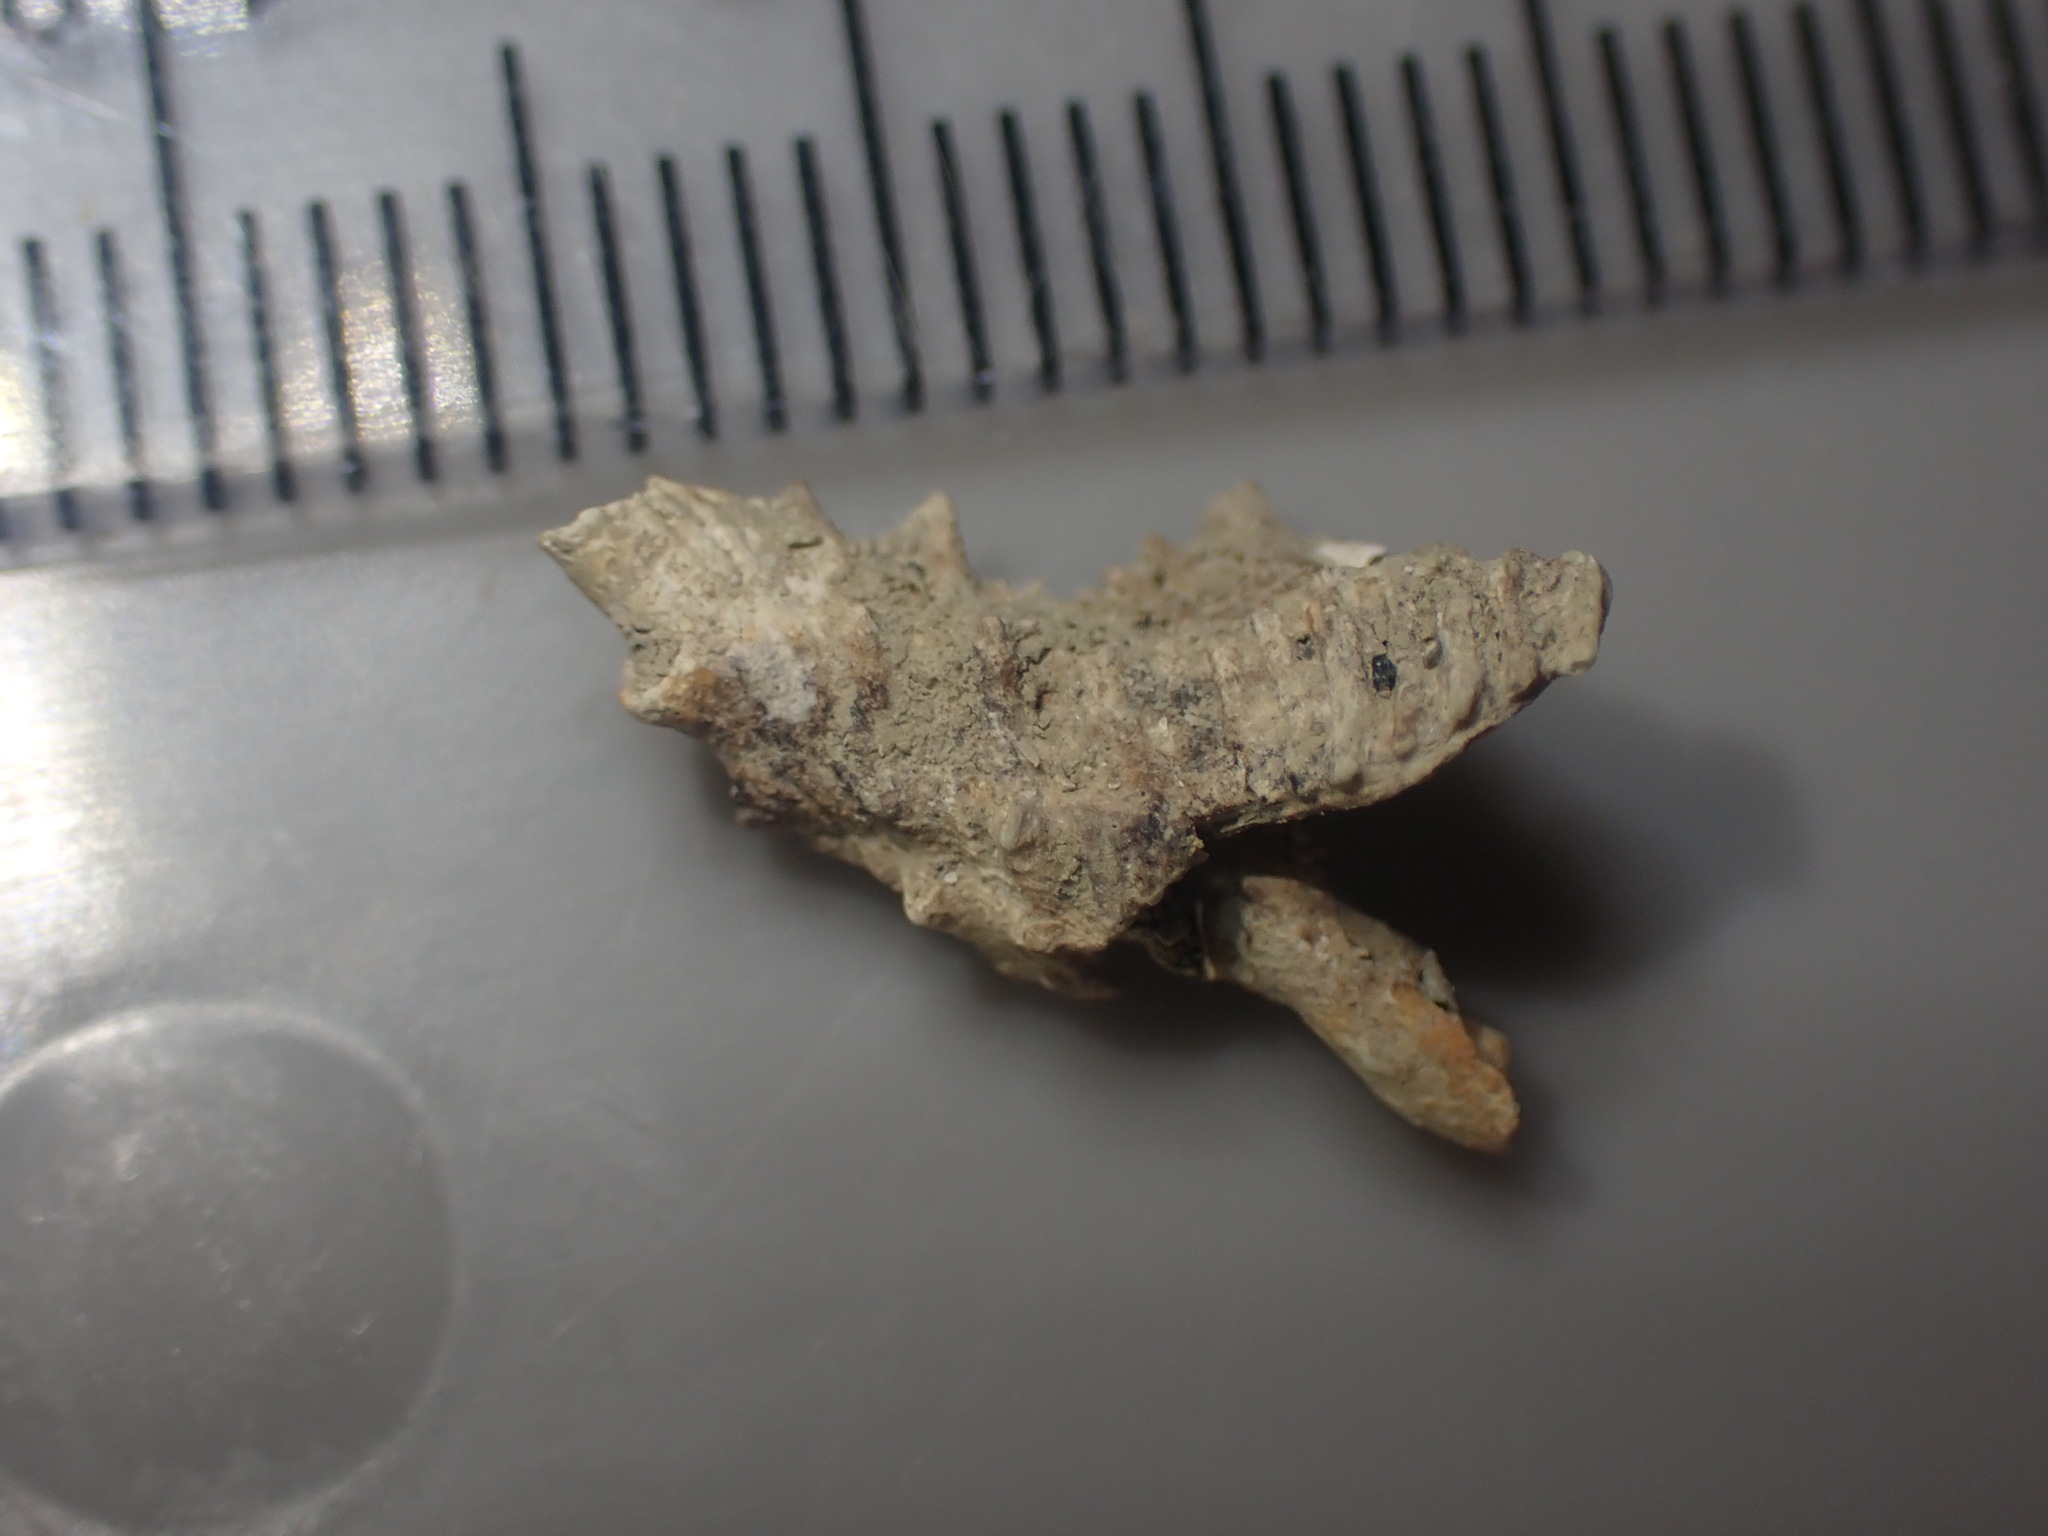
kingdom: Animalia
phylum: Mollusca
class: Gastropoda
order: Neogastropoda
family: Muricidae
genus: Murexsul
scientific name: Murexsul octogonus
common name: Octagon murex
